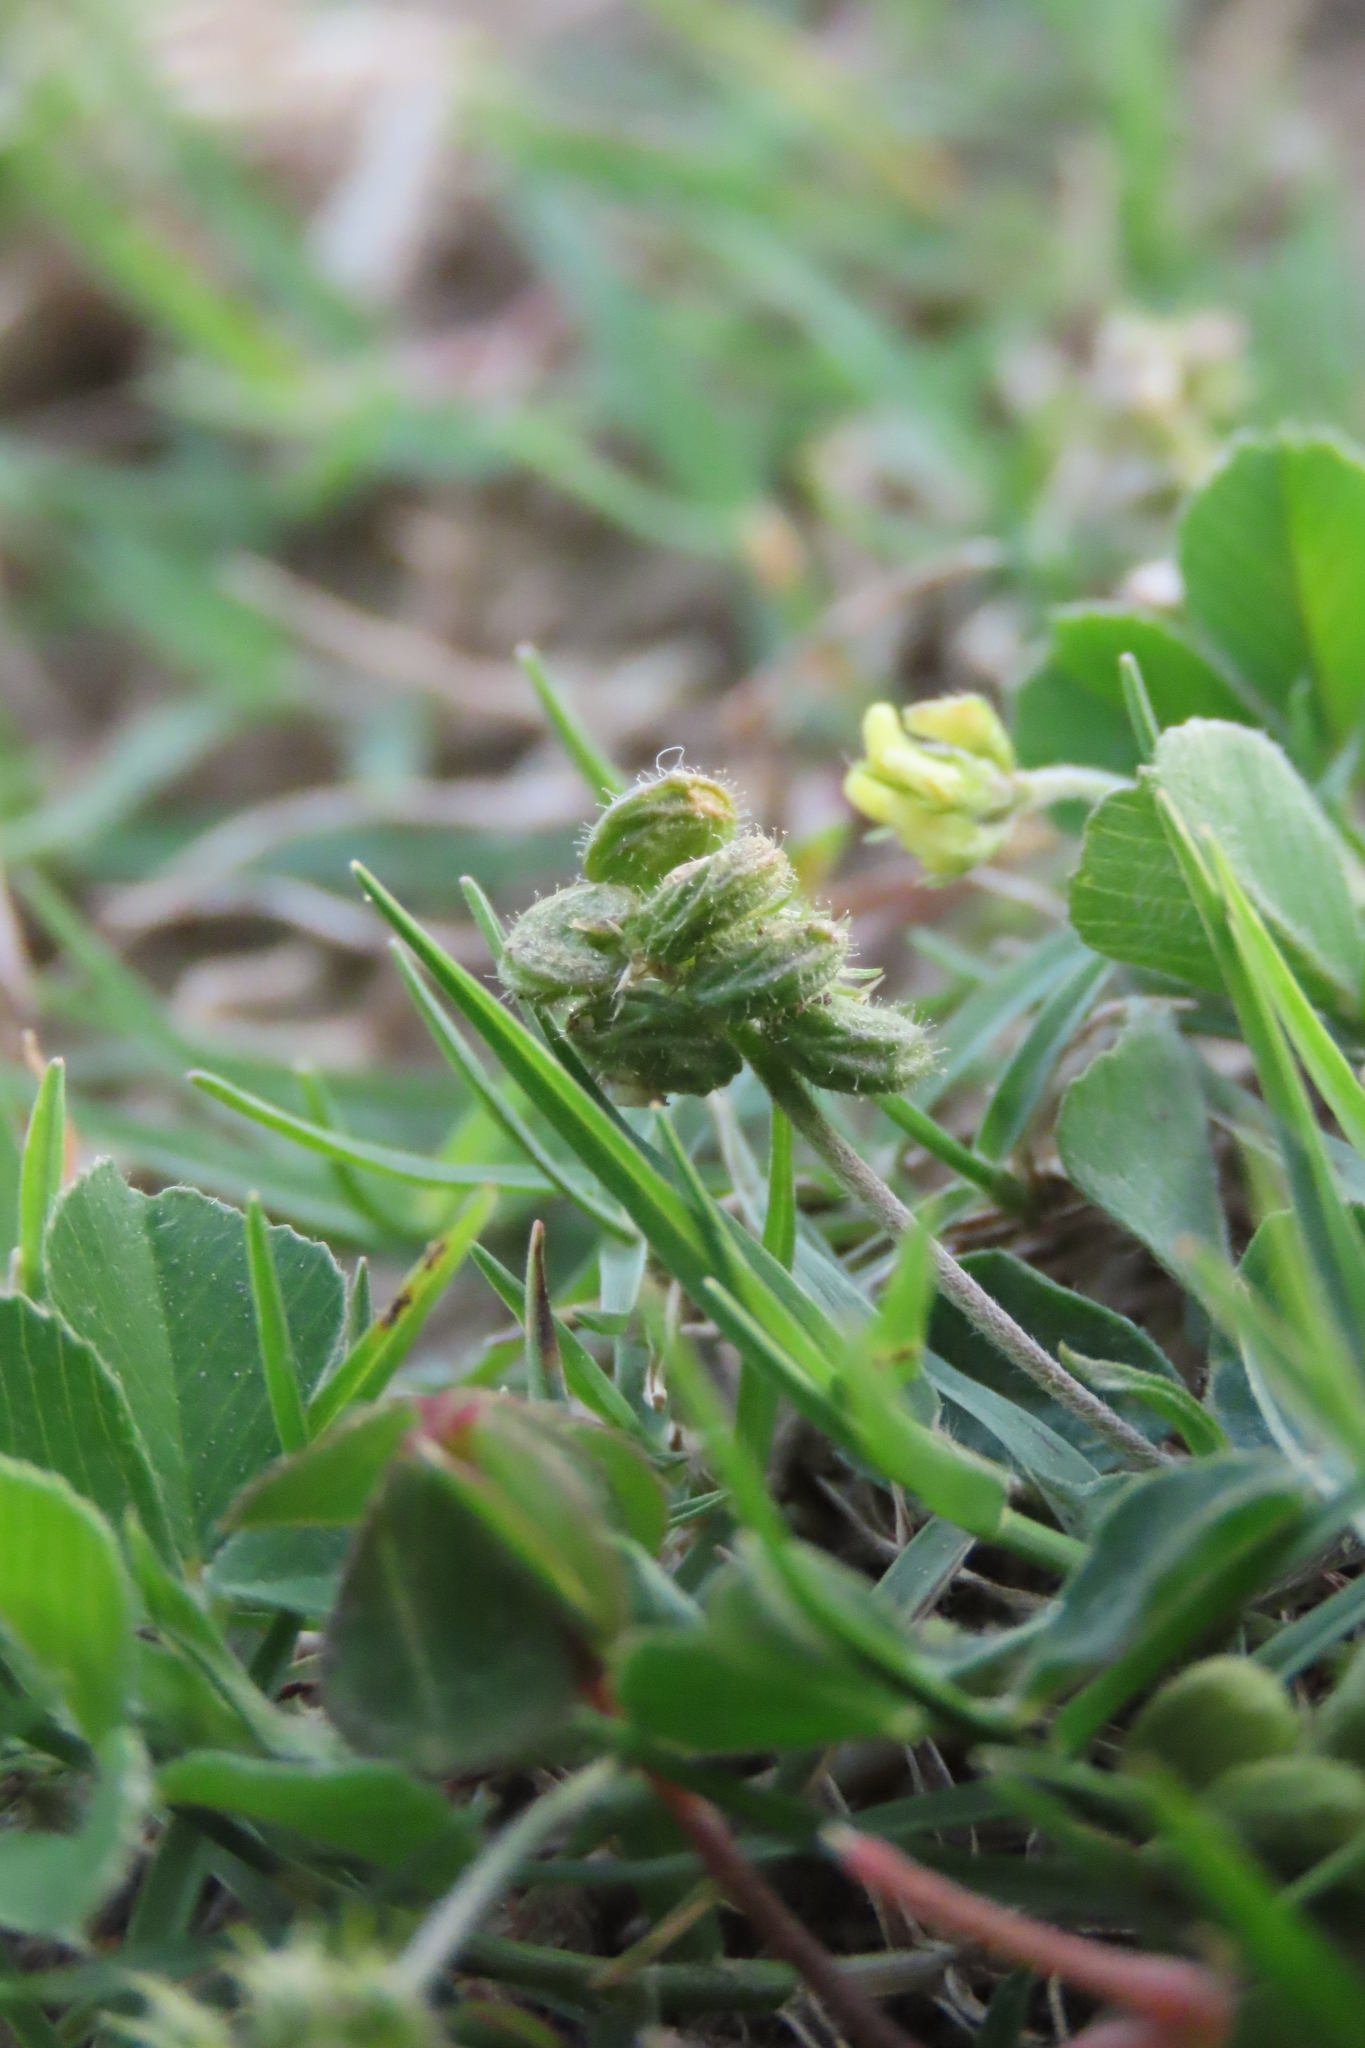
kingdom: Plantae
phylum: Tracheophyta
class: Magnoliopsida
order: Fabales
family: Fabaceae
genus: Medicago
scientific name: Medicago lupulina
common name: Black medick
